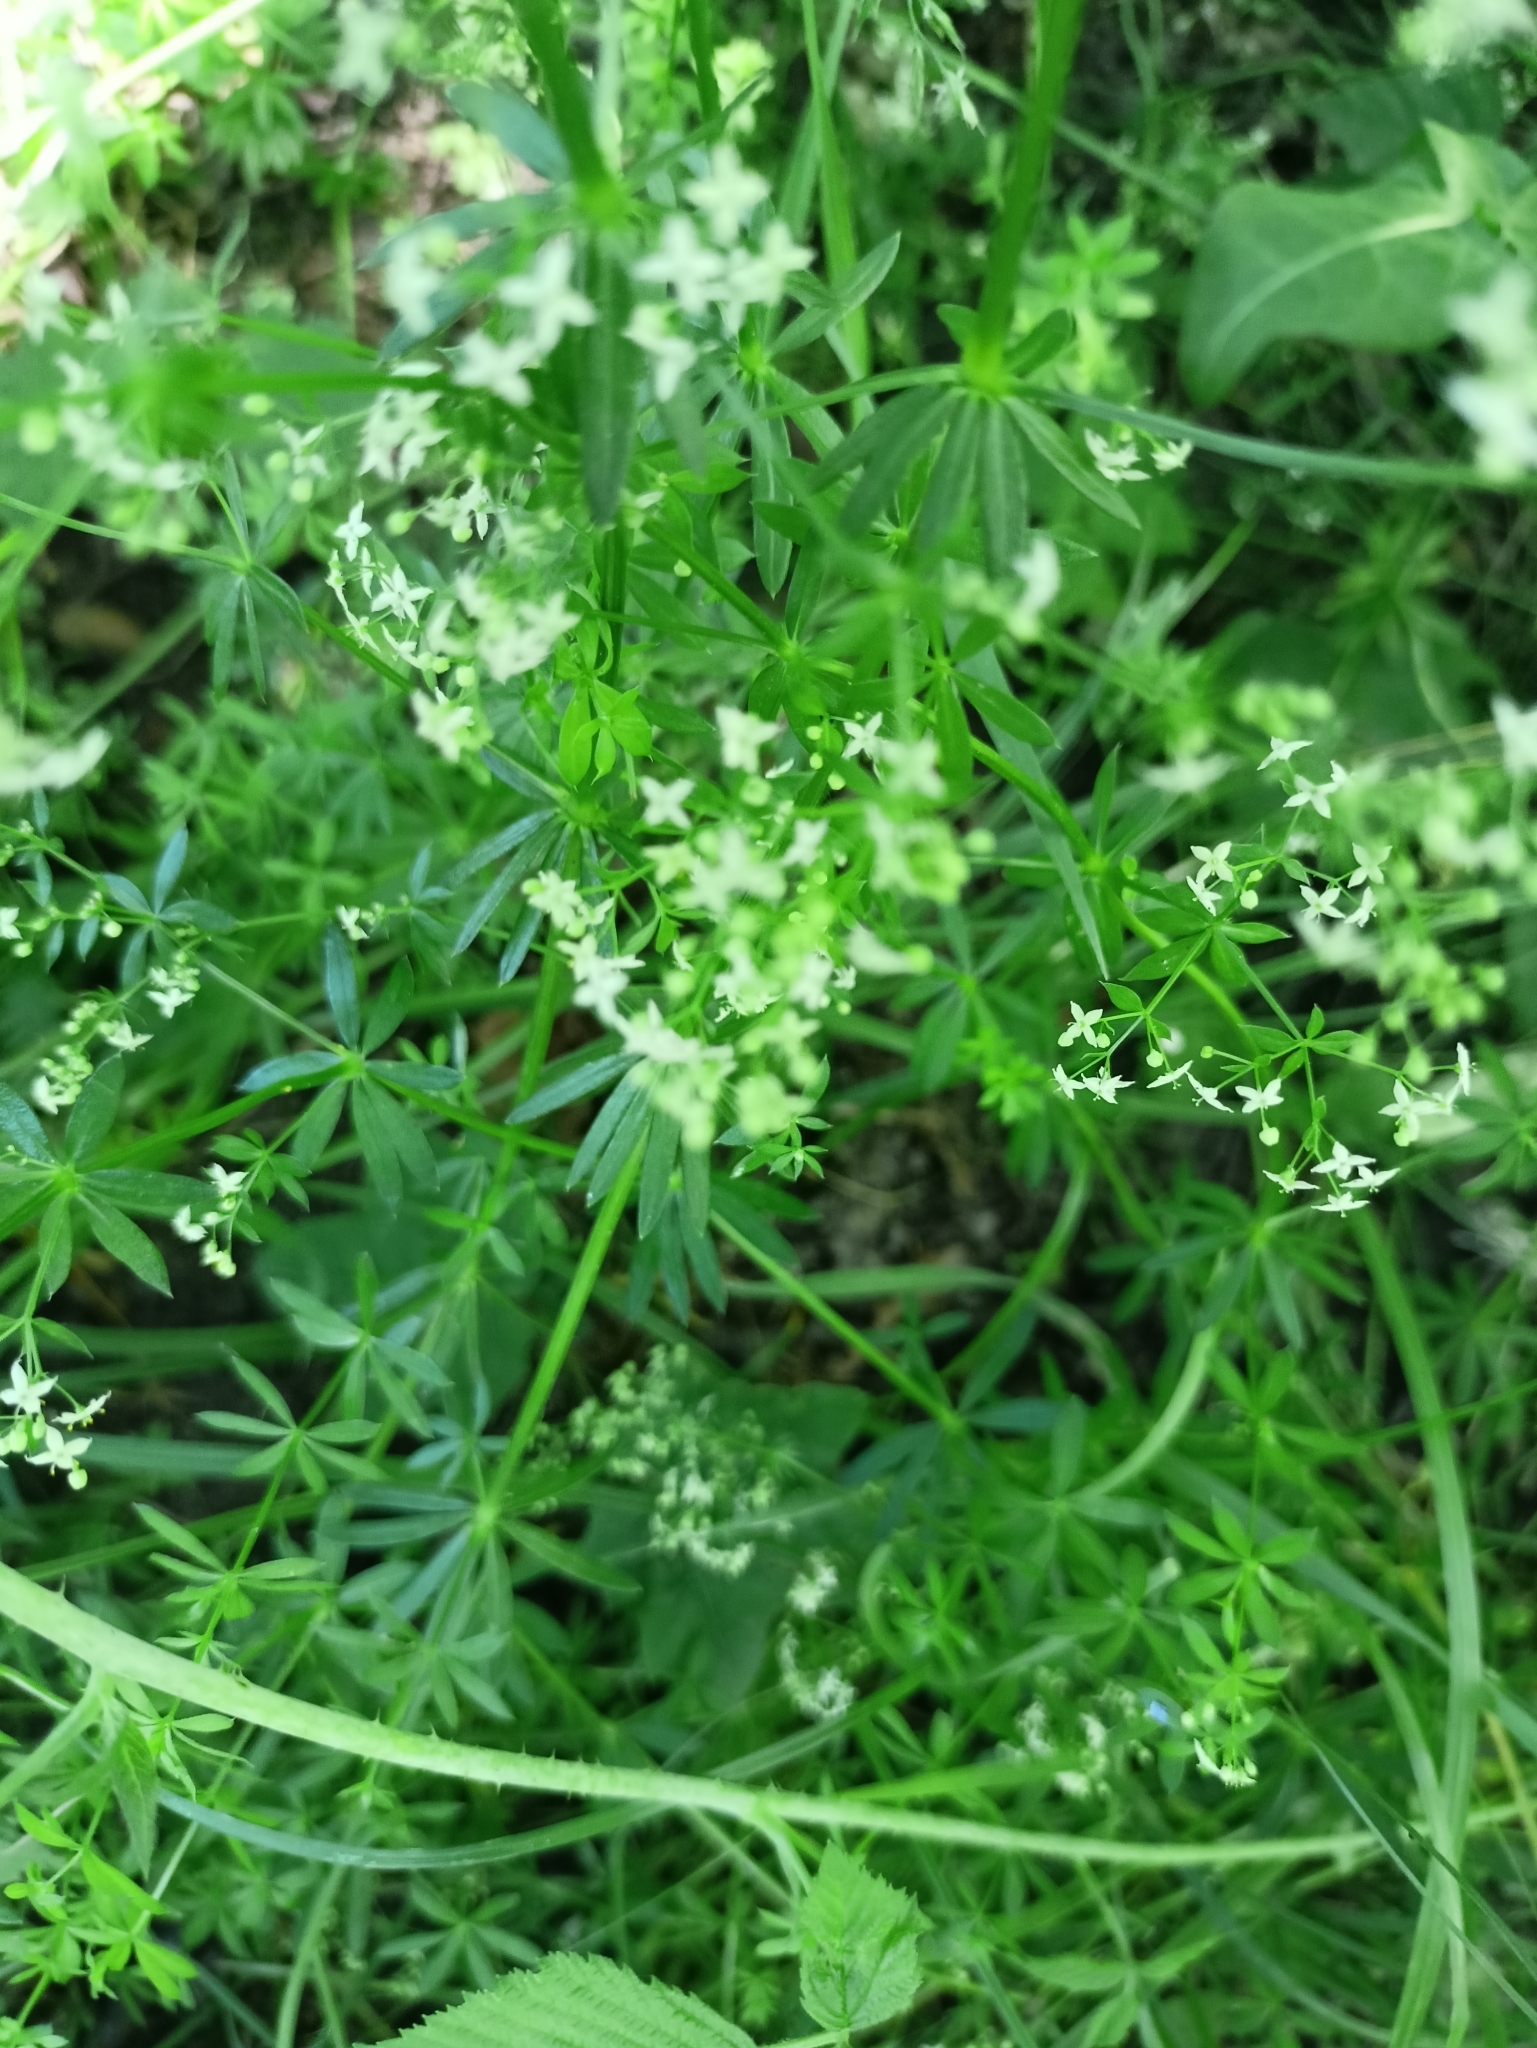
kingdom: Plantae
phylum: Tracheophyta
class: Magnoliopsida
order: Gentianales
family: Rubiaceae
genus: Galium
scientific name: Galium mollugo
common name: Hedge bedstraw
